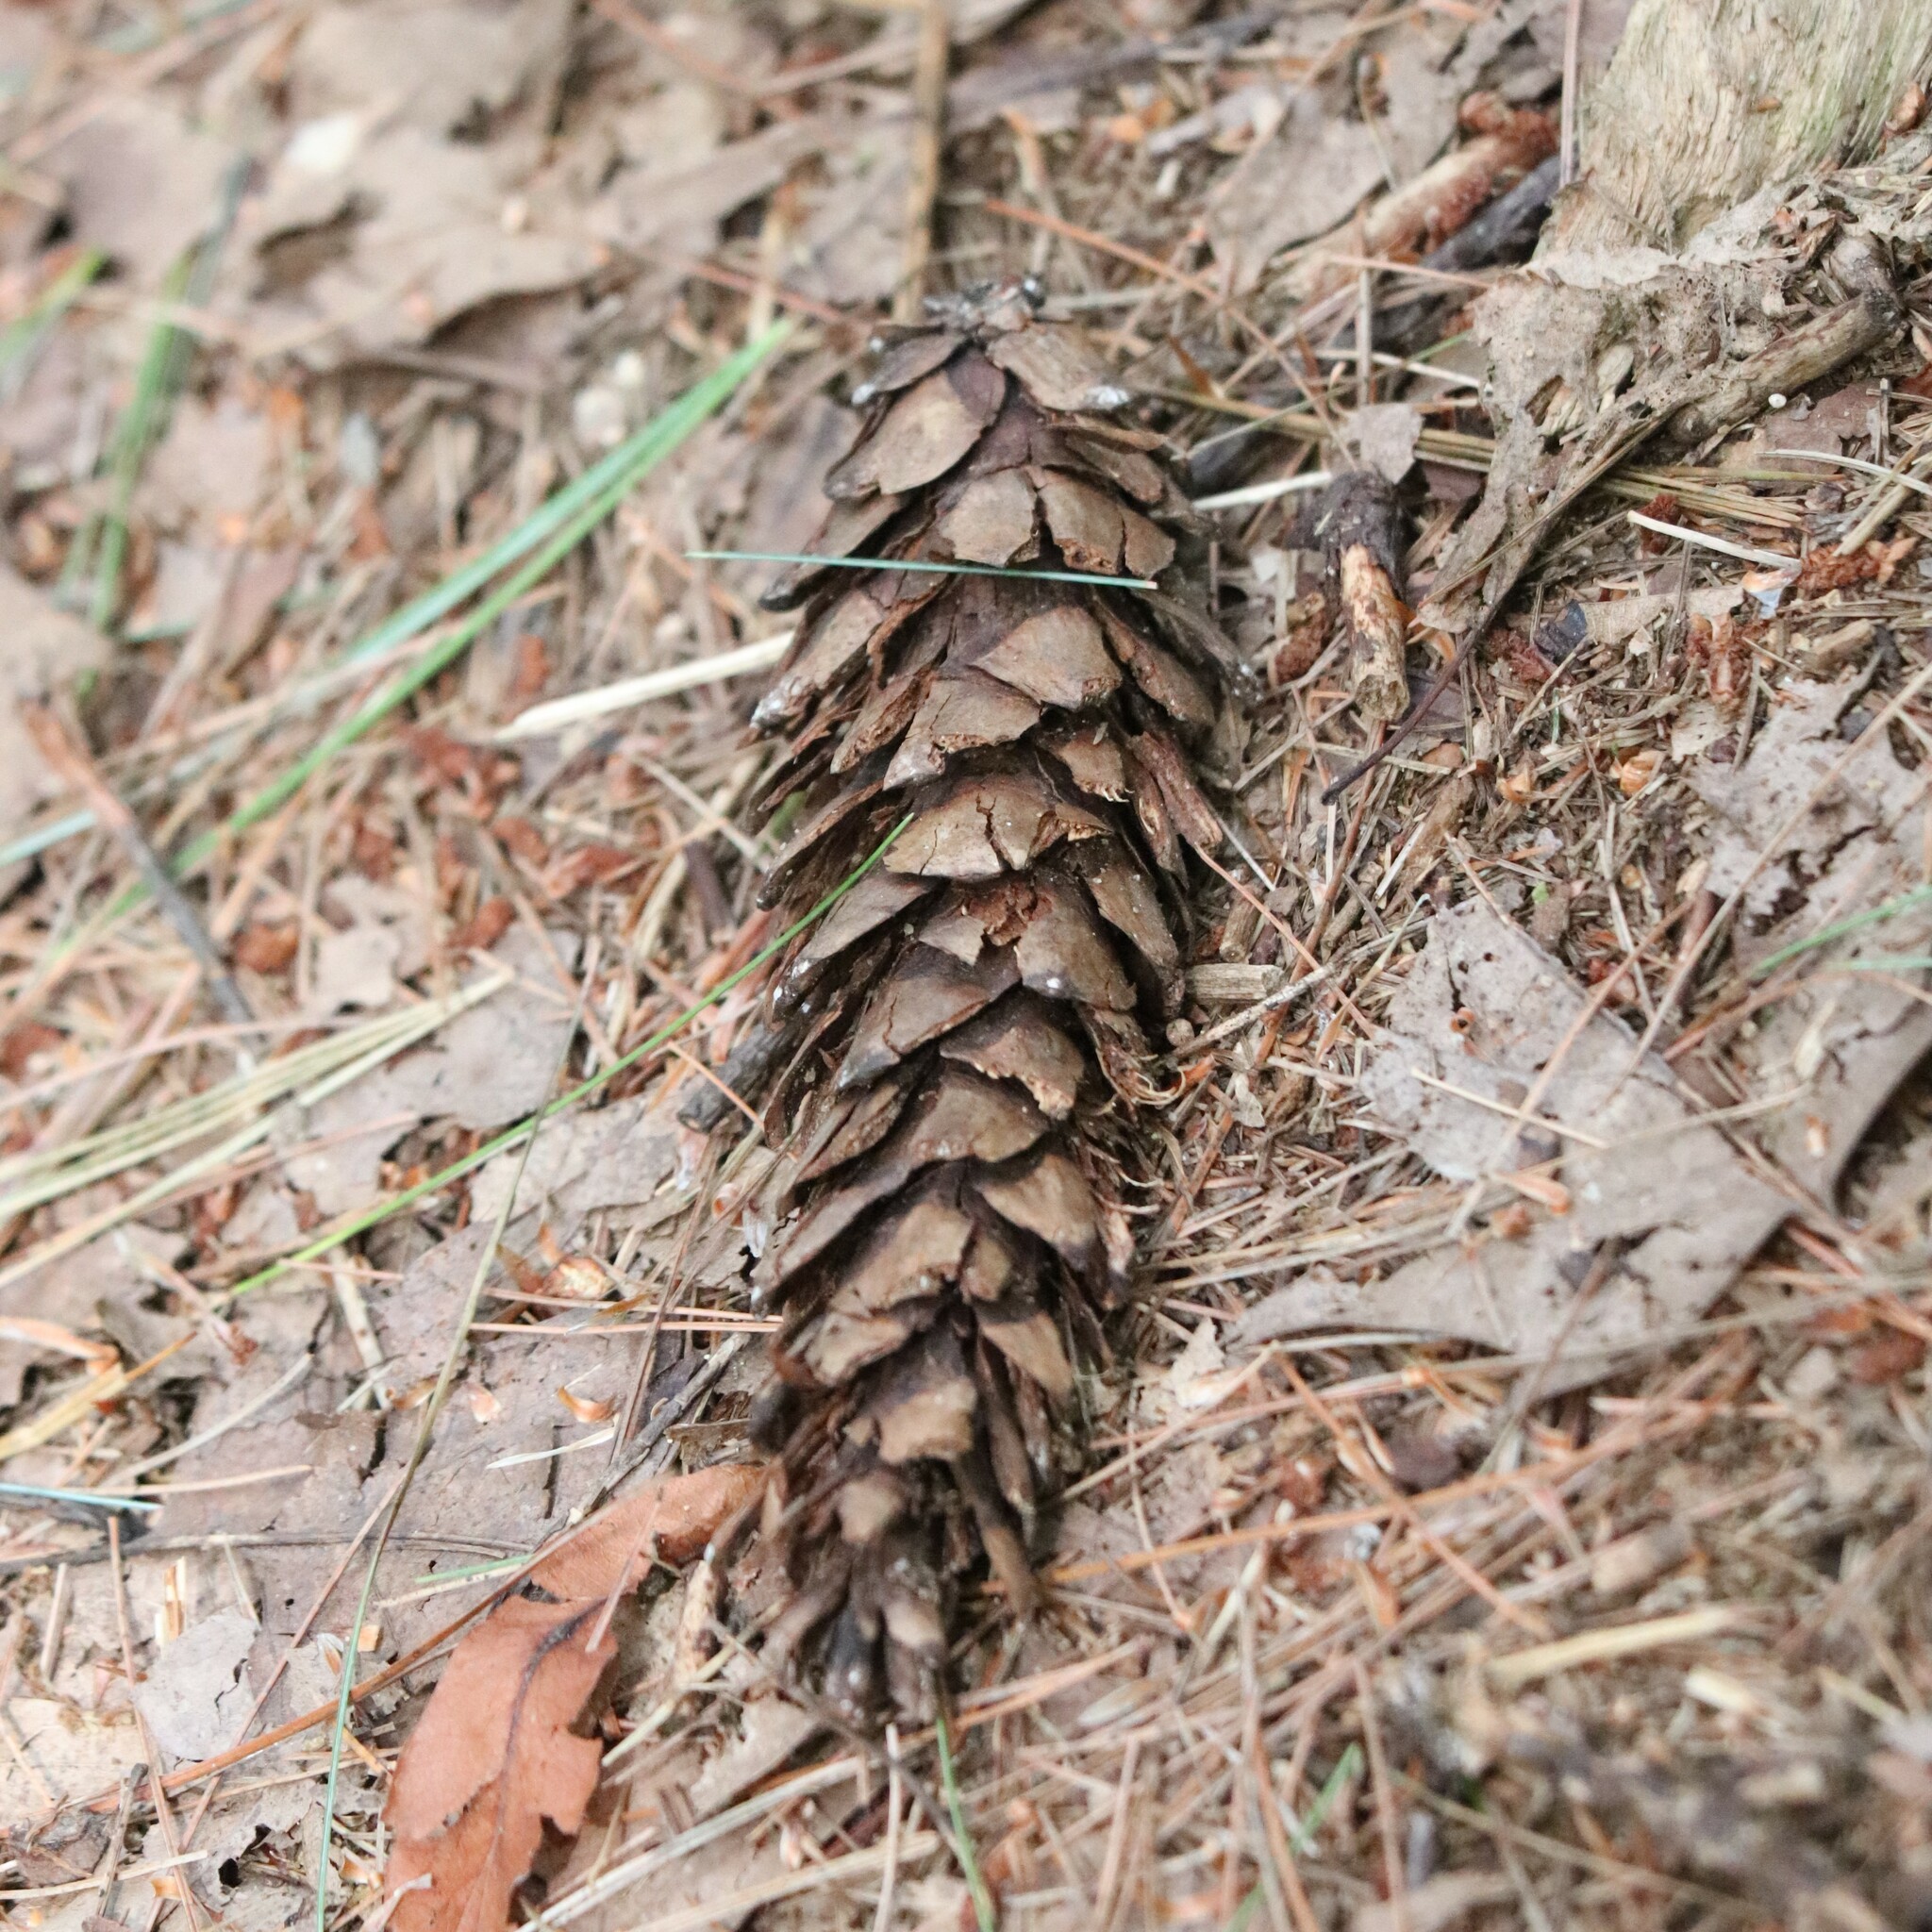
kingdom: Plantae
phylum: Tracheophyta
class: Pinopsida
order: Pinales
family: Pinaceae
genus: Pinus
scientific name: Pinus strobus
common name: Weymouth pine
